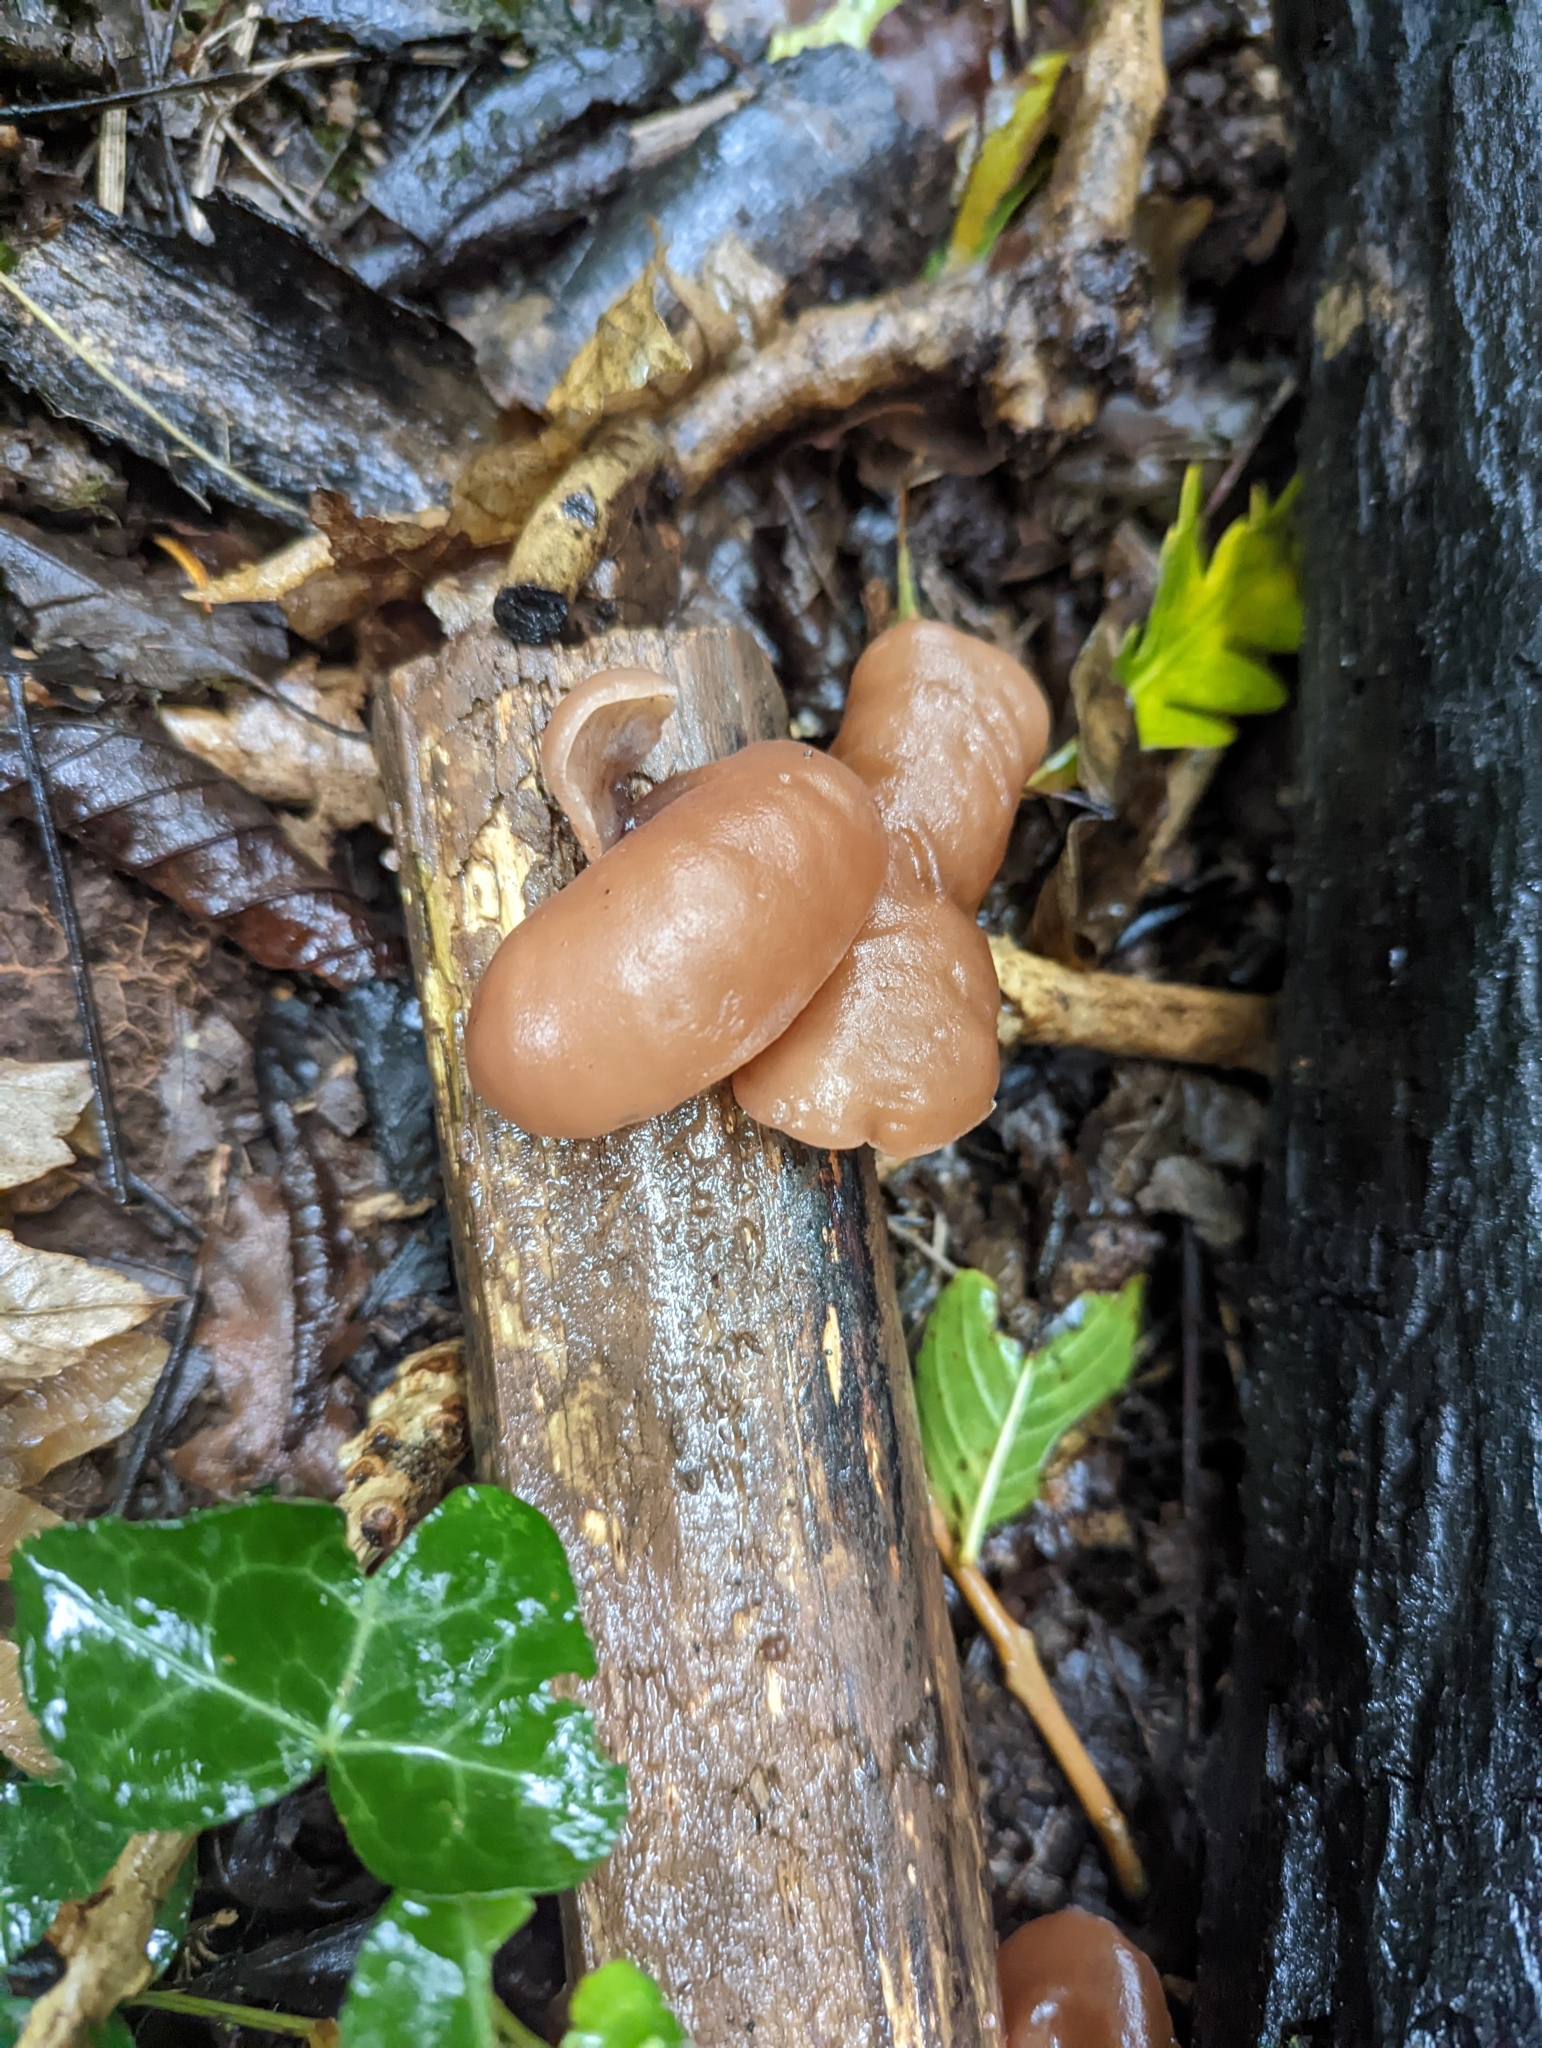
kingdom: Fungi
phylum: Basidiomycota
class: Agaricomycetes
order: Auriculariales
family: Auriculariaceae
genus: Auricularia
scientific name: Auricularia auricula-judae
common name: Jelly ear
